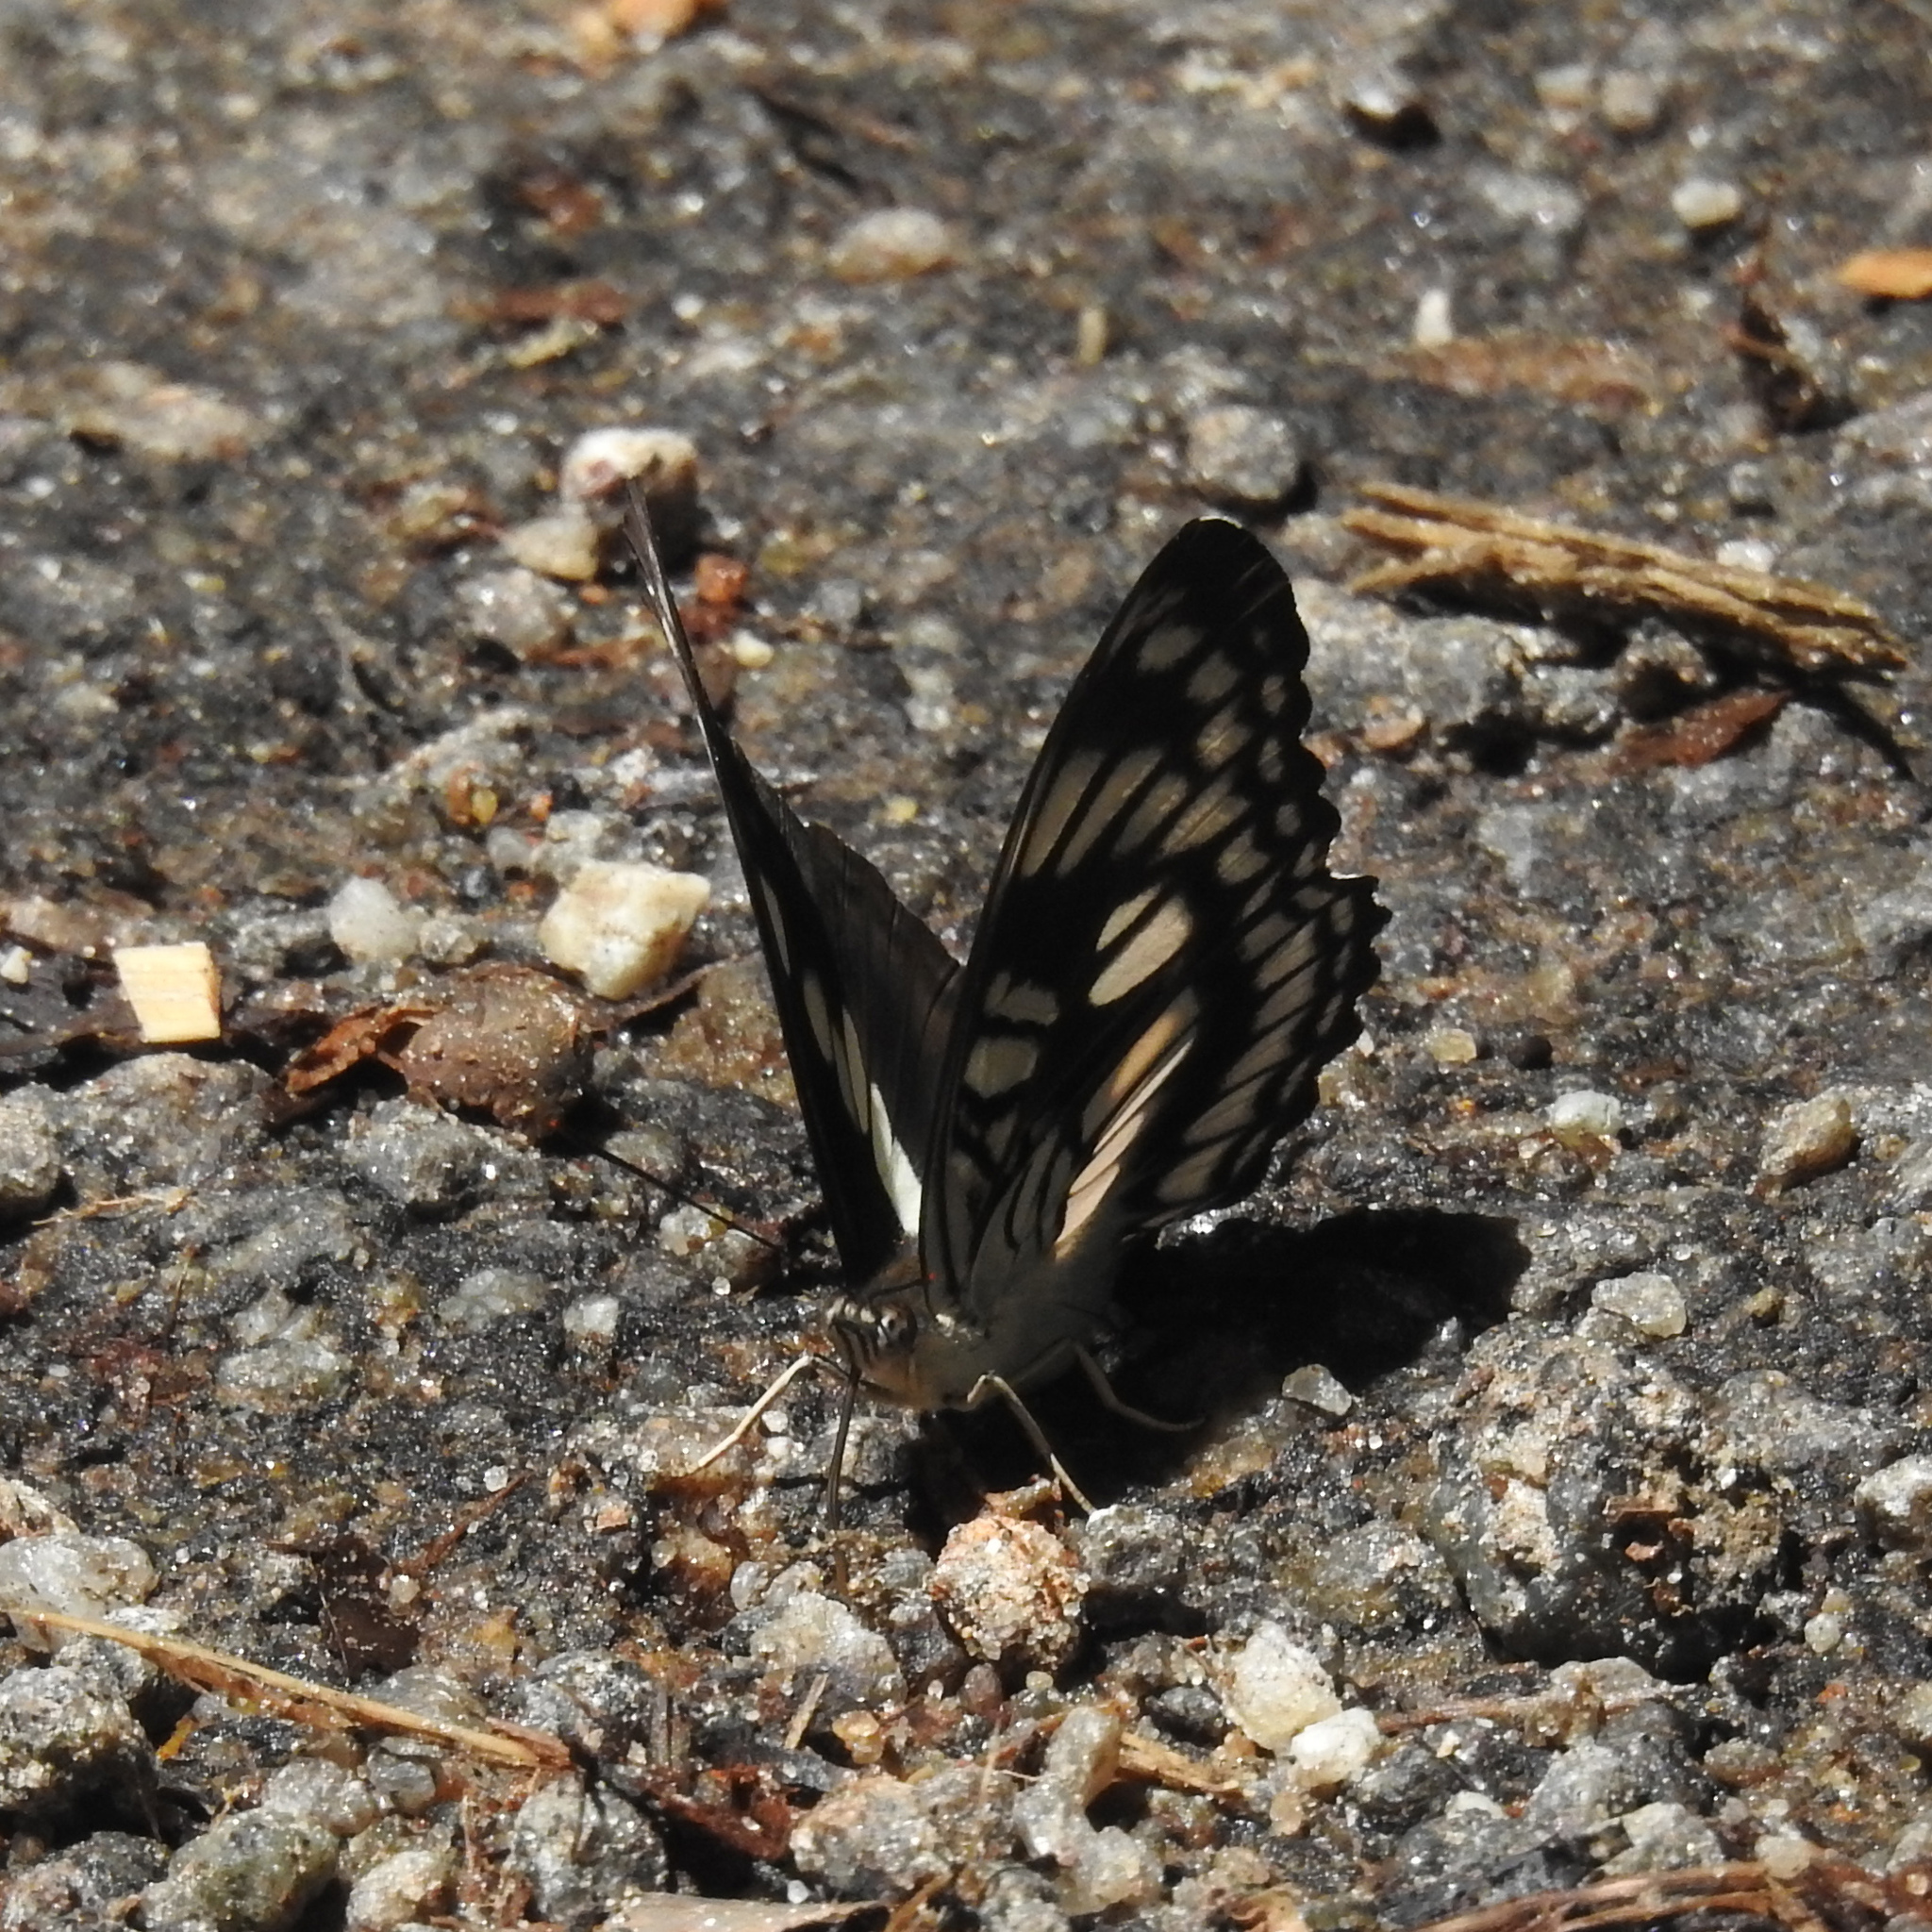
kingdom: Animalia
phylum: Arthropoda
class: Insecta
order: Lepidoptera
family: Nymphalidae
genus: Parathyma
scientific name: Parathyma ranga
